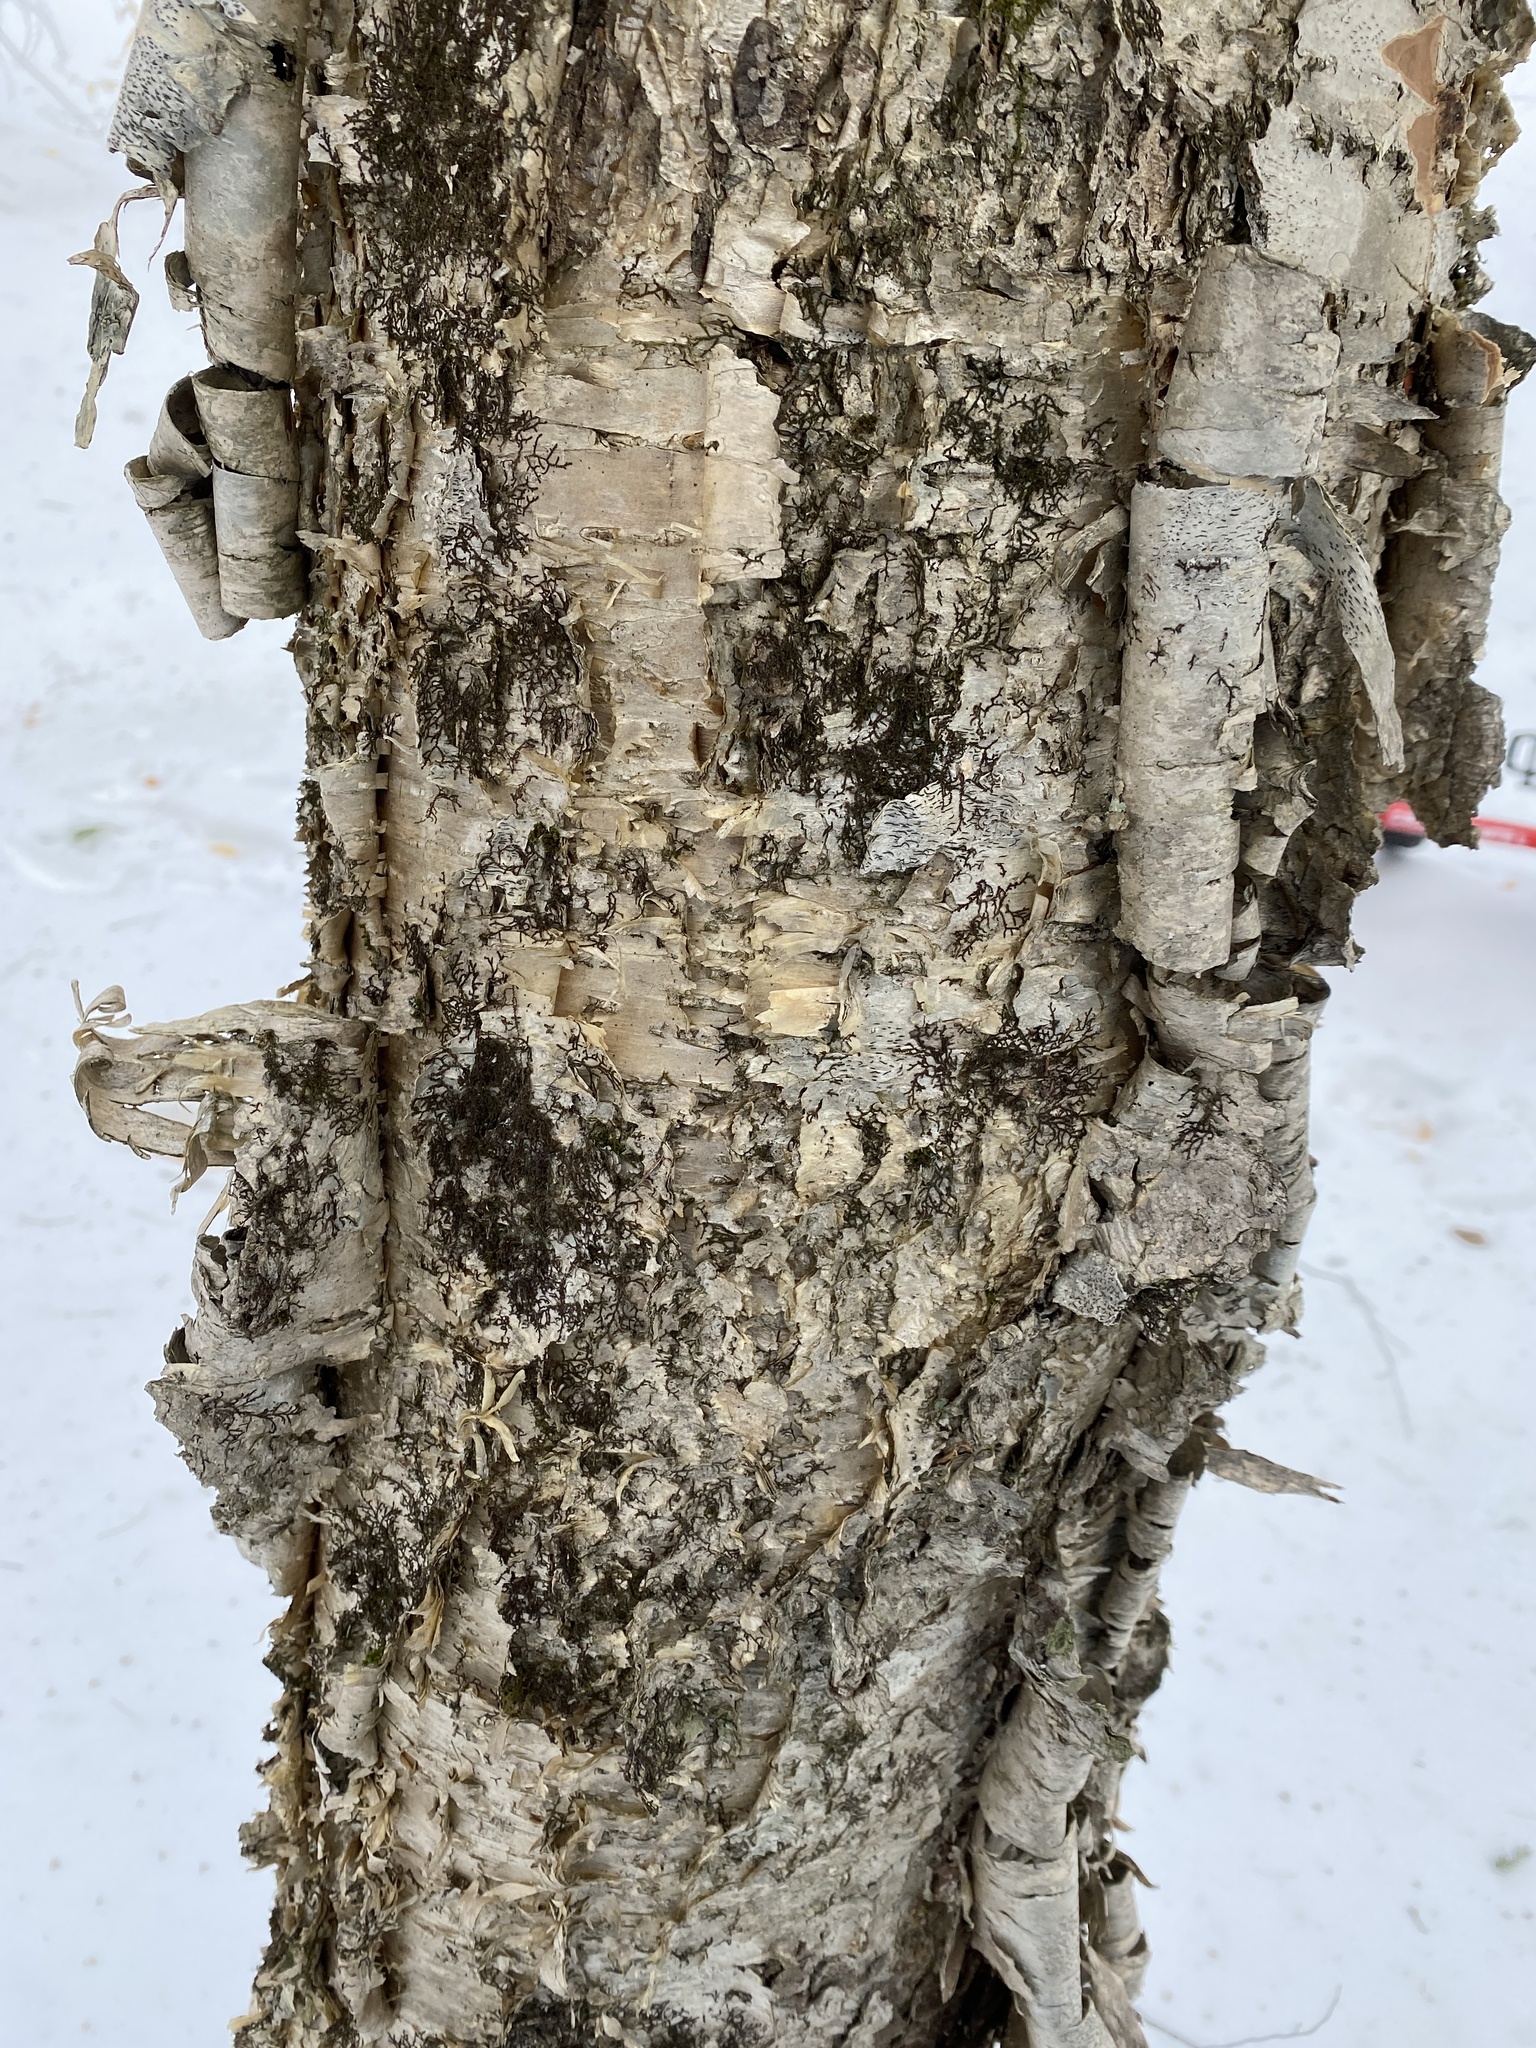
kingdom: Plantae
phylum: Tracheophyta
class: Magnoliopsida
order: Fagales
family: Betulaceae
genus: Betula
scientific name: Betula alleghaniensis
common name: Yellow birch
